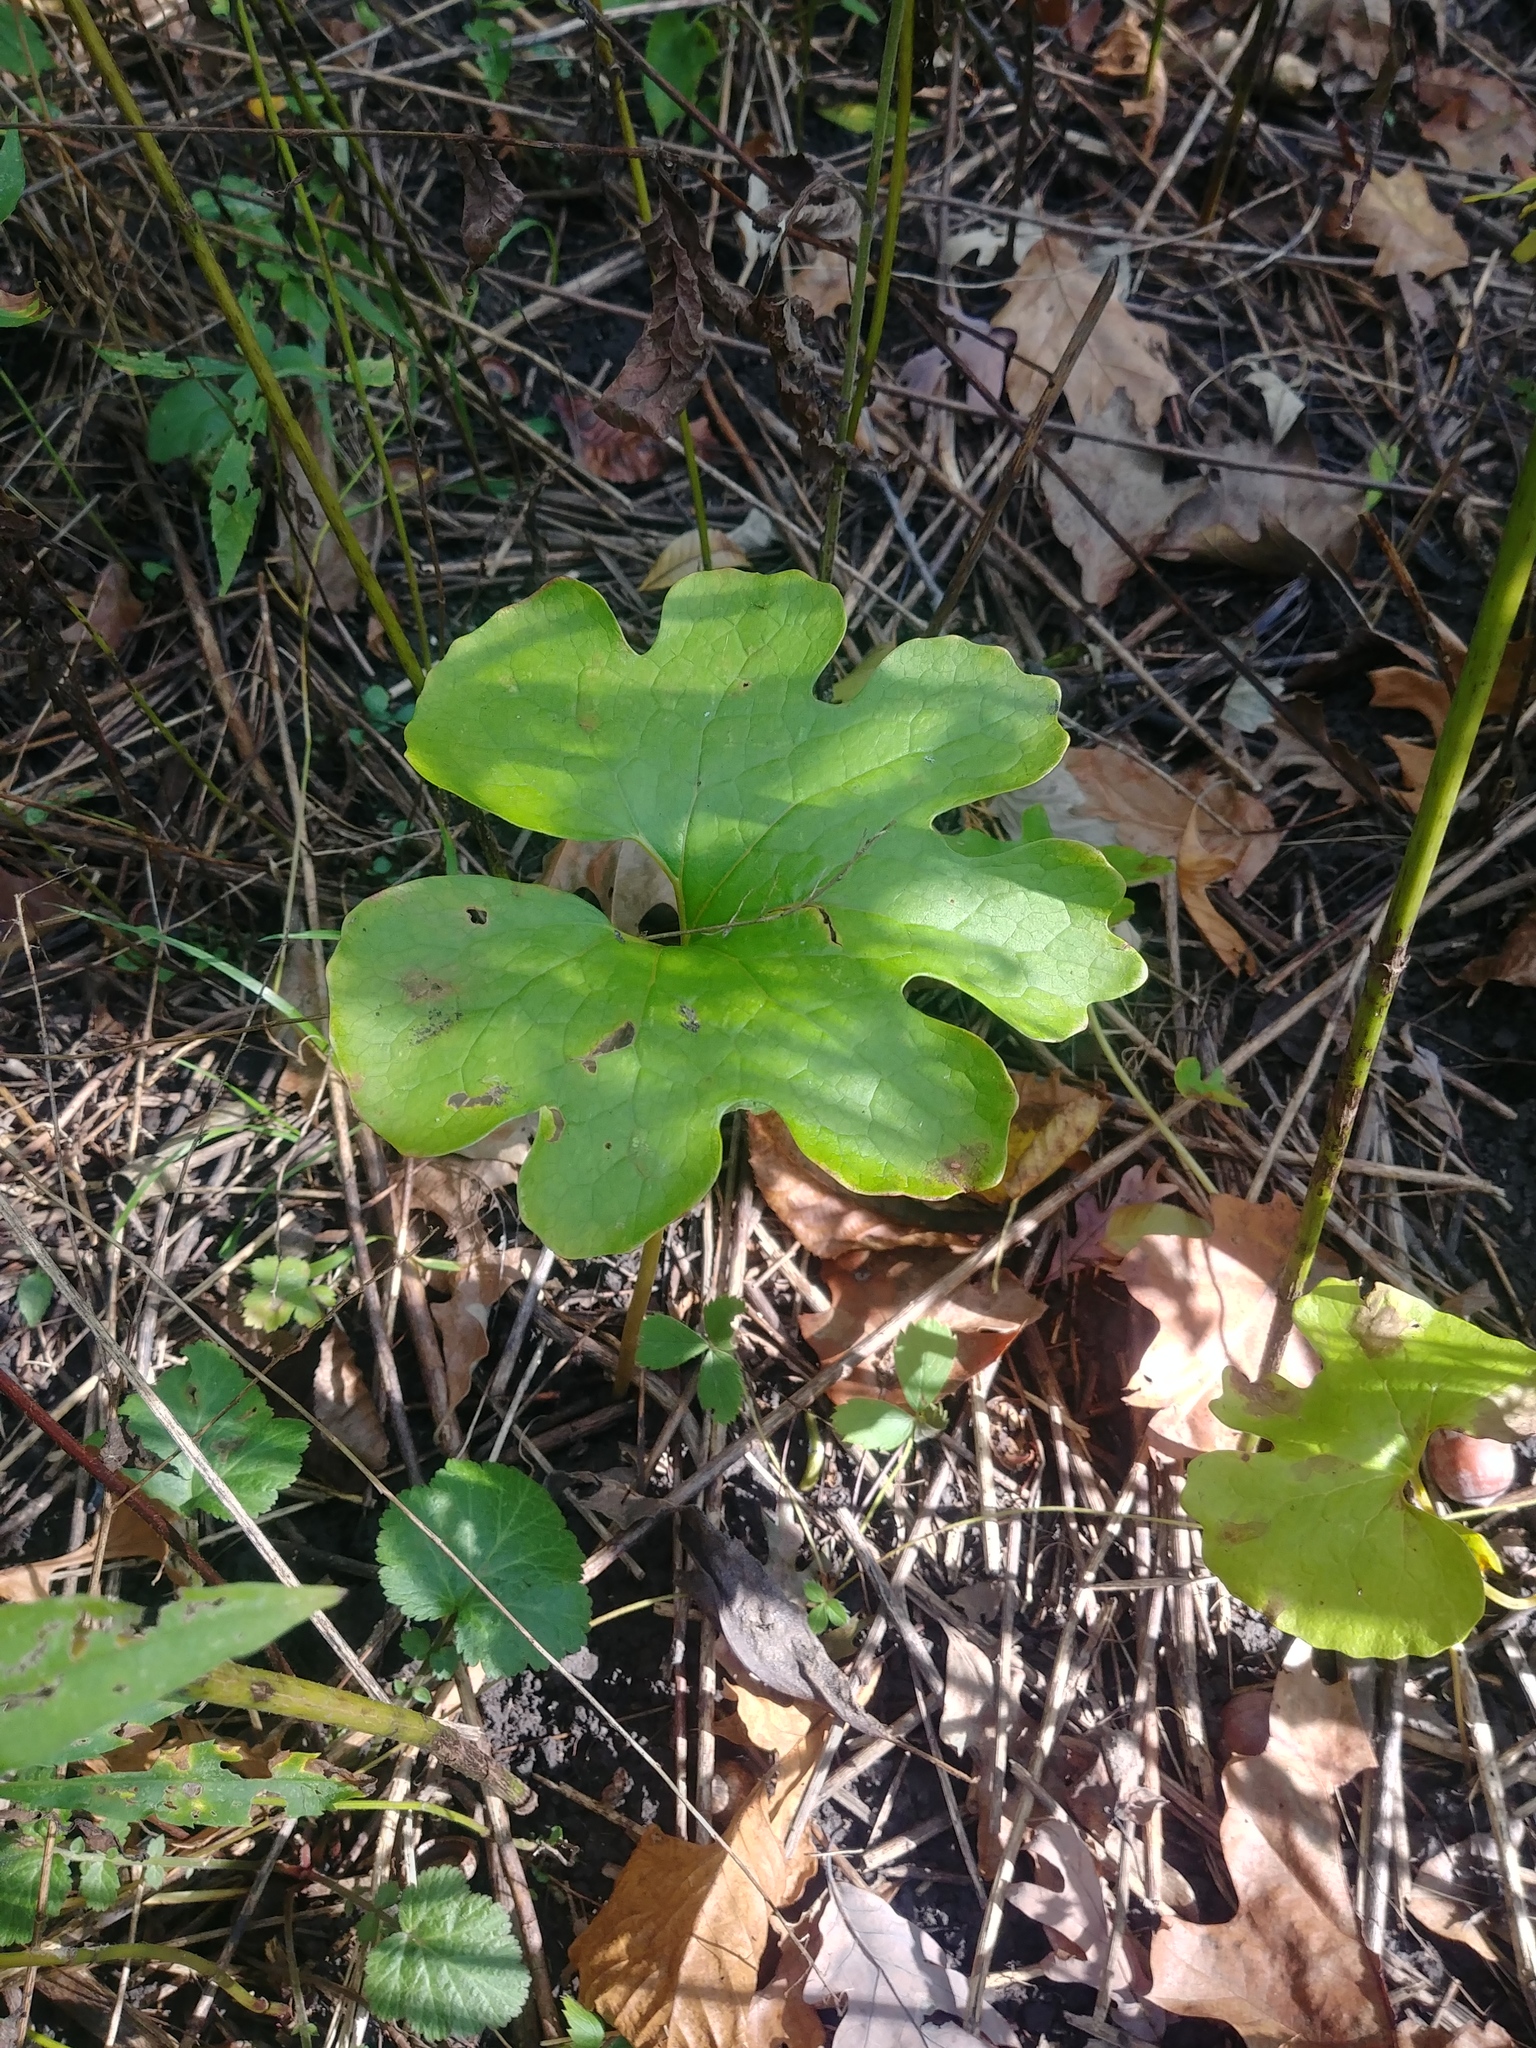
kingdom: Plantae
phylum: Tracheophyta
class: Magnoliopsida
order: Ranunculales
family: Papaveraceae
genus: Sanguinaria
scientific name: Sanguinaria canadensis
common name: Bloodroot
